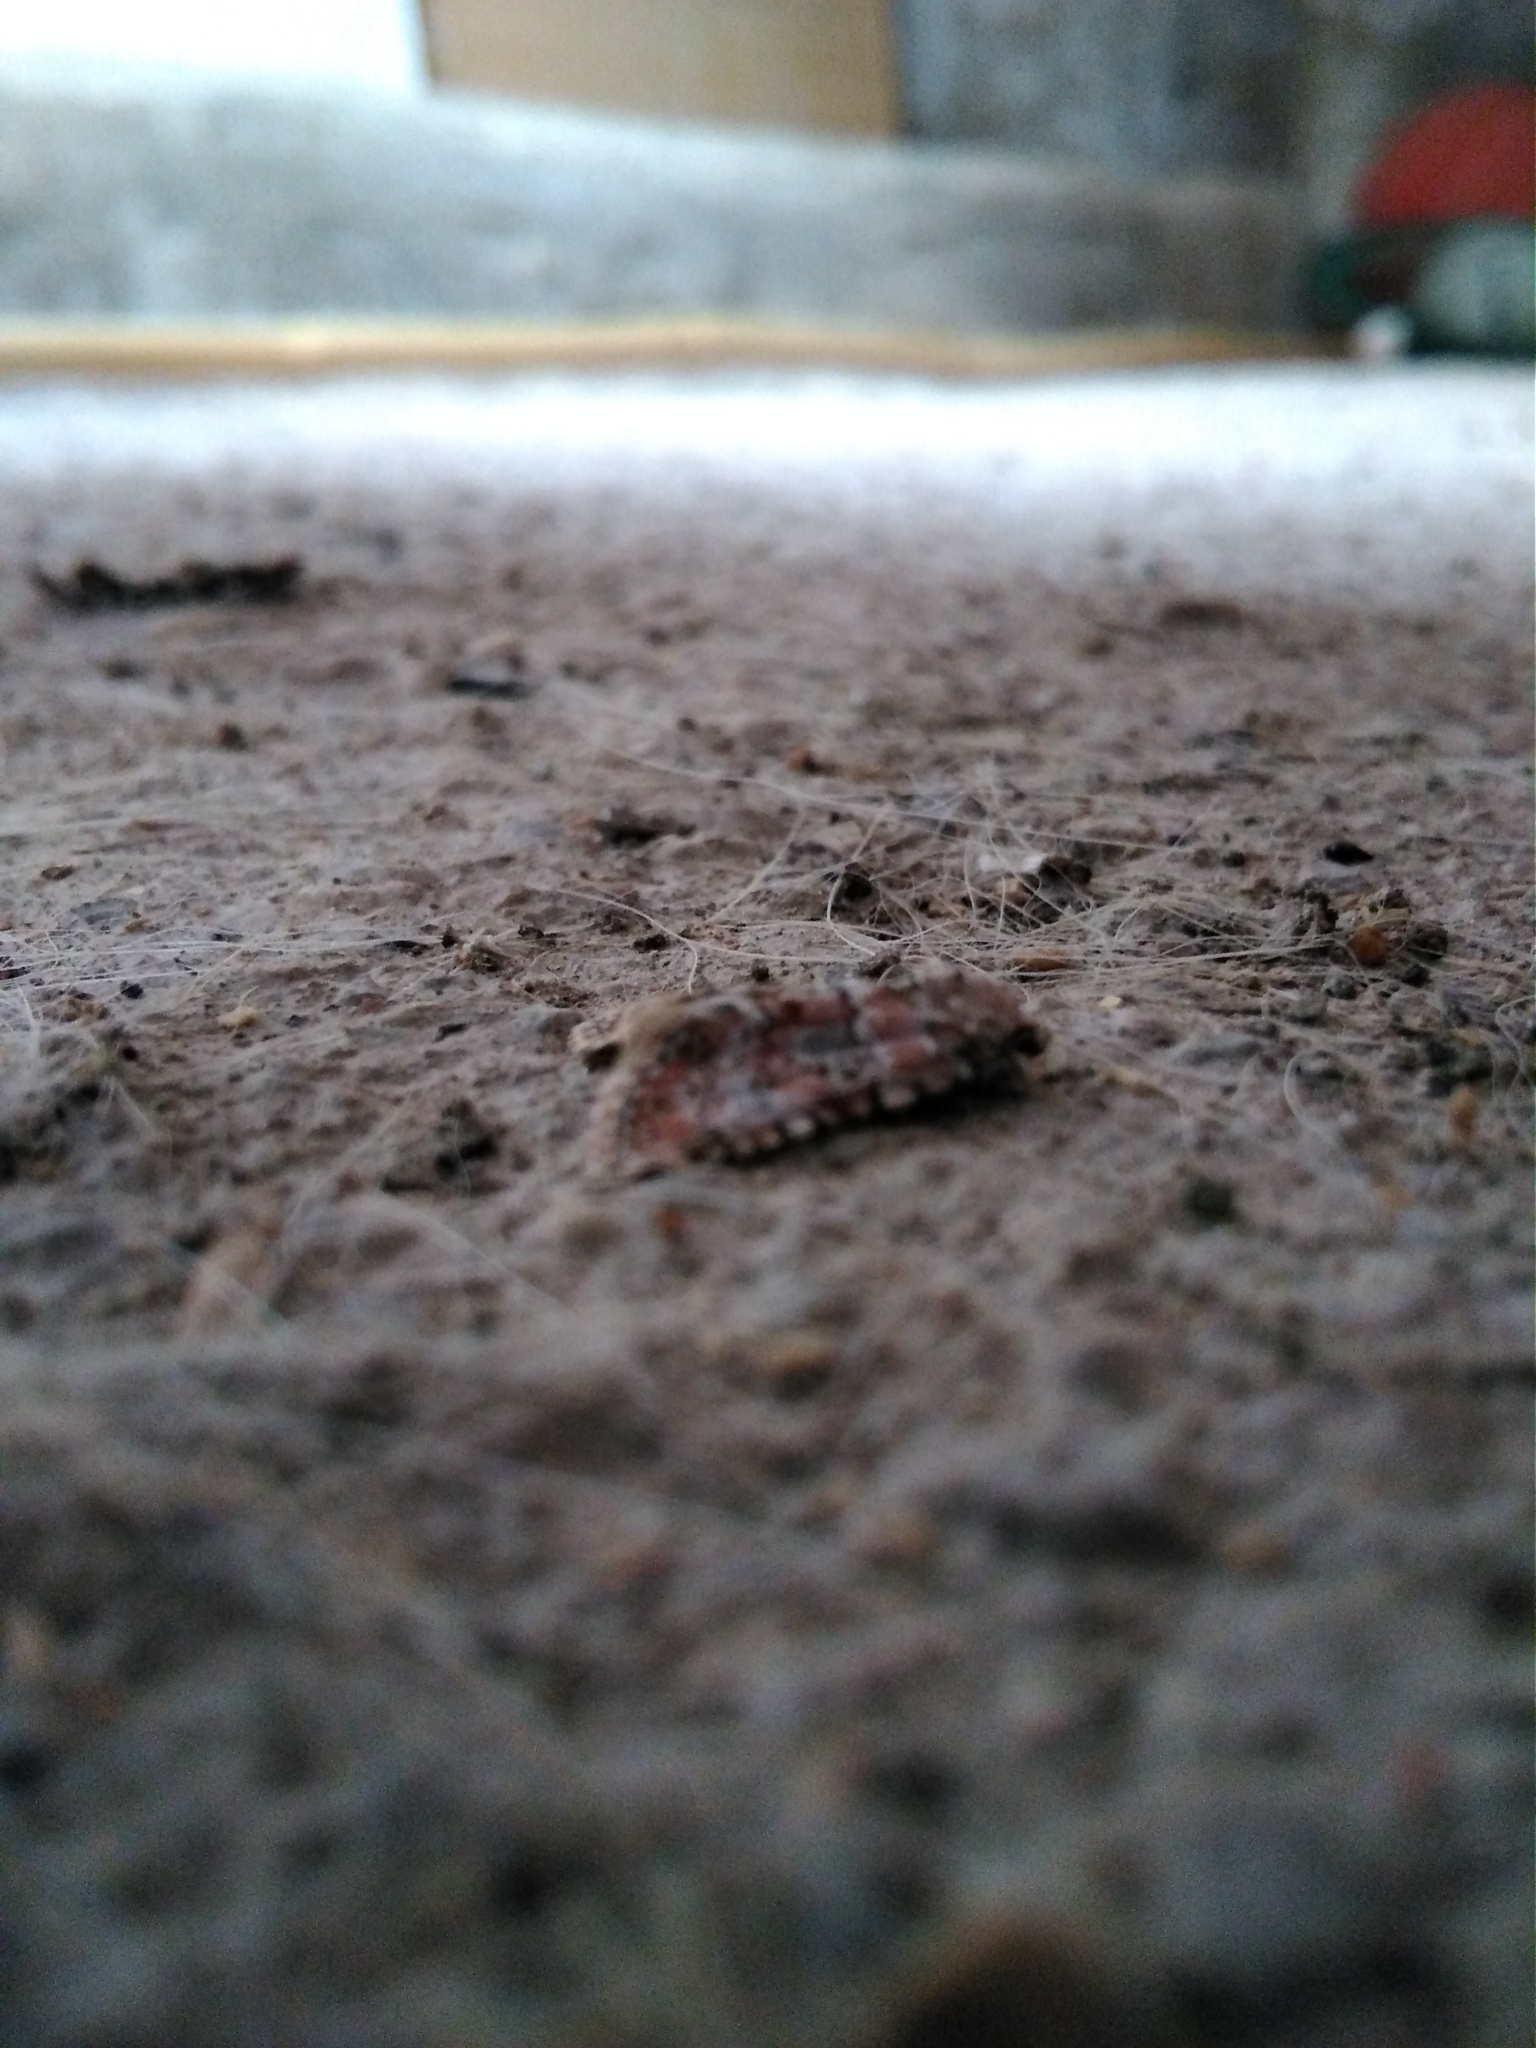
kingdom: Animalia
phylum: Arthropoda
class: Insecta
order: Lepidoptera
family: Noctuidae
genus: Bryophila
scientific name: Bryophila domestica
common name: Marbled beauty
